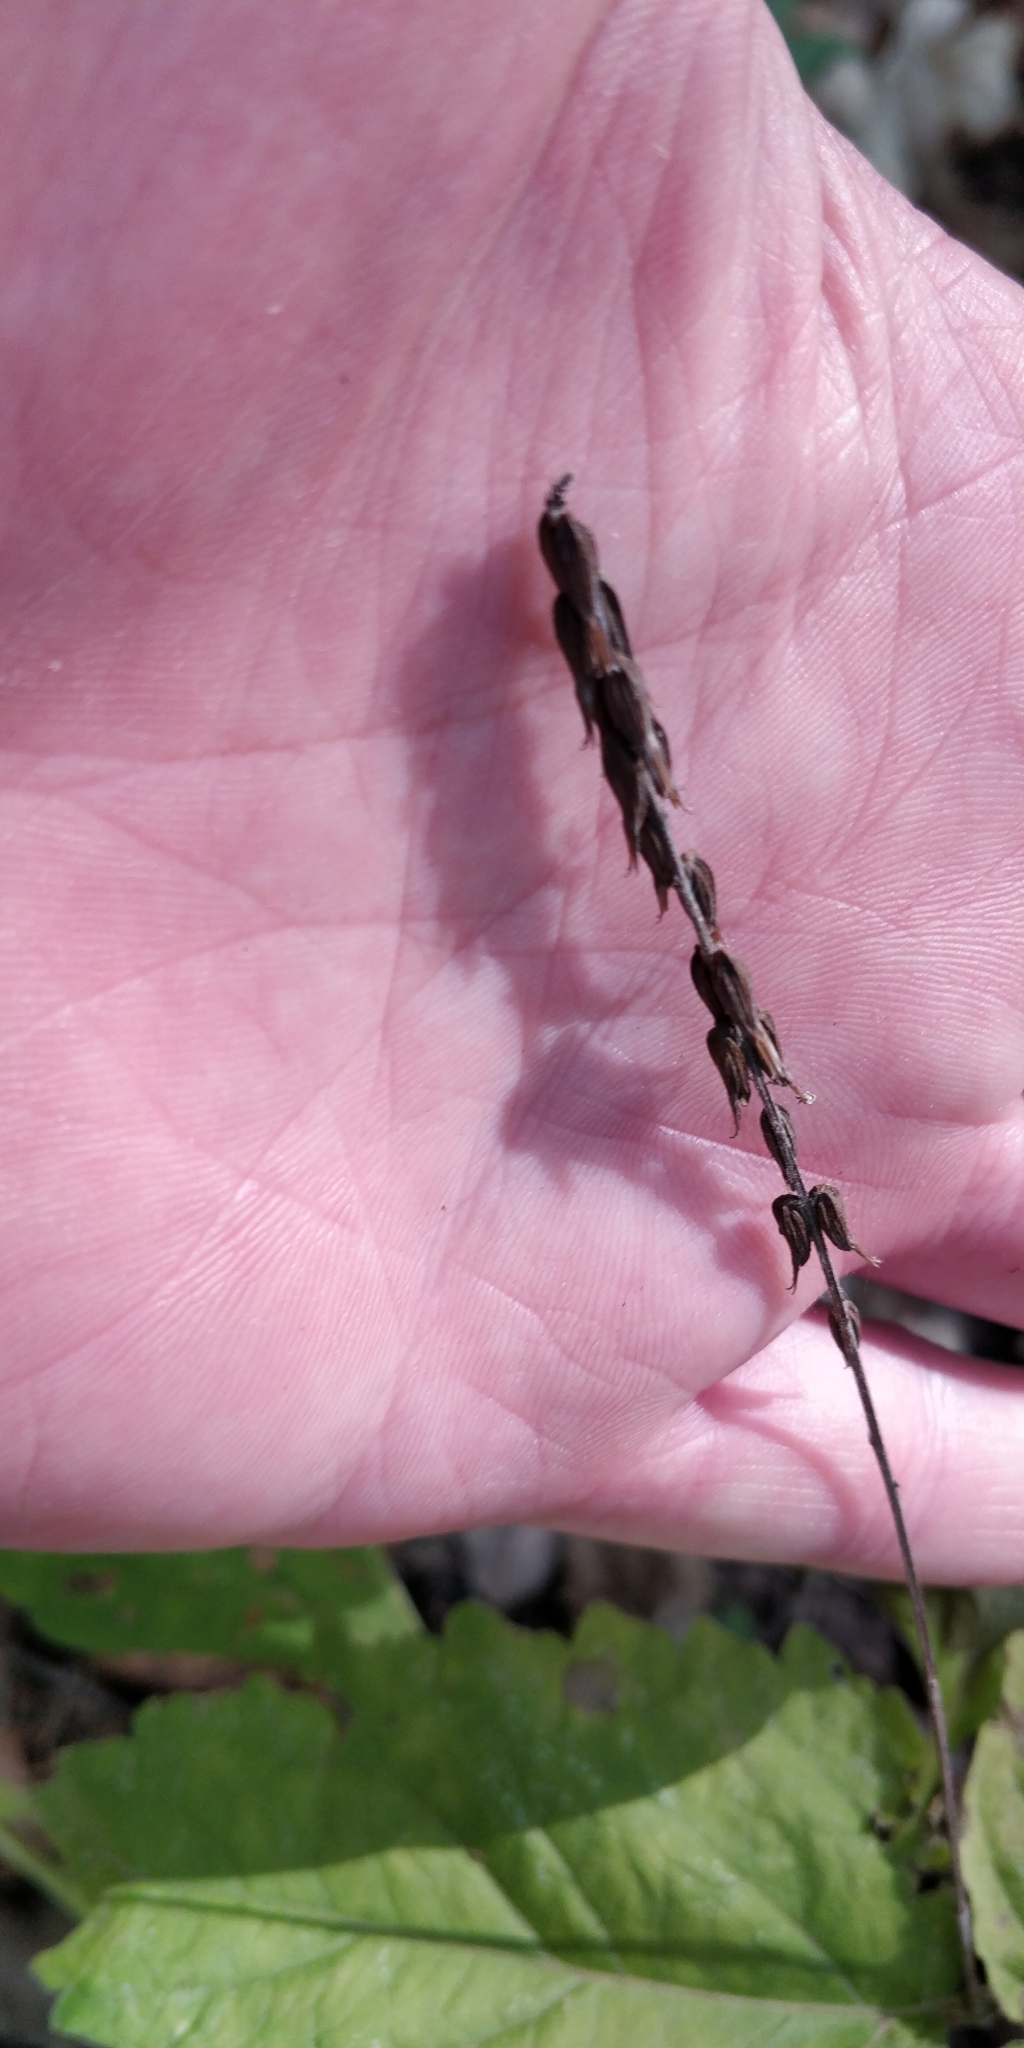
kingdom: Plantae
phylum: Tracheophyta
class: Magnoliopsida
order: Lamiales
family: Phrymaceae
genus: Phryma
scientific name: Phryma leptostachya
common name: American lopseed
